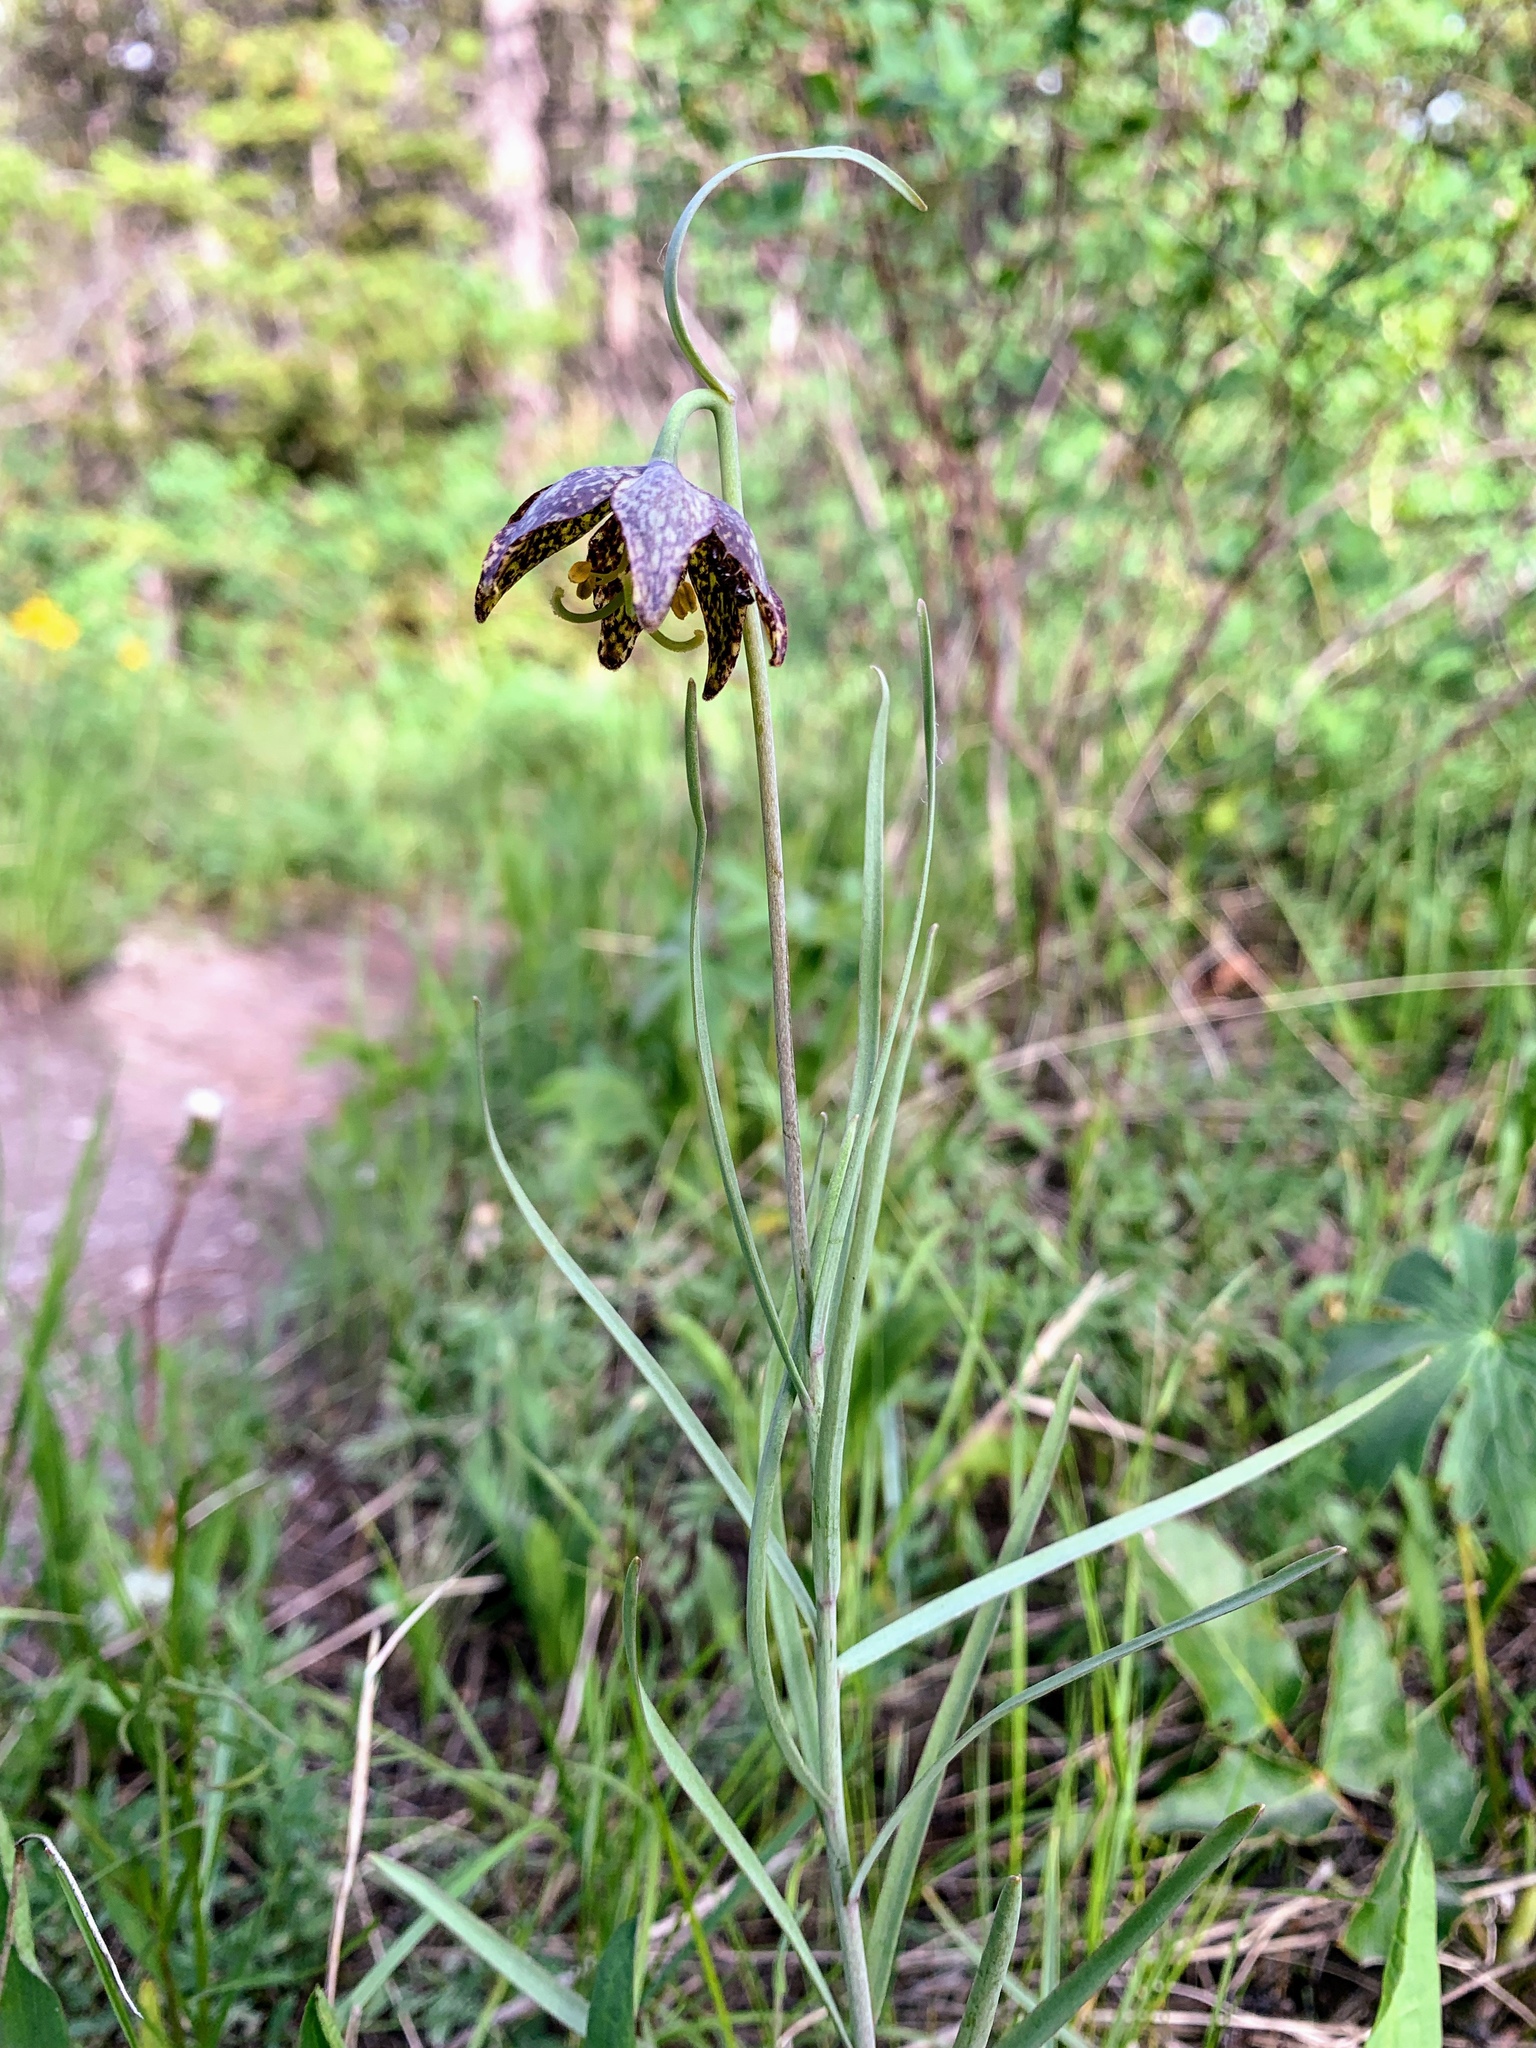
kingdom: Plantae
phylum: Tracheophyta
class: Liliopsida
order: Liliales
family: Liliaceae
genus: Fritillaria
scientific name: Fritillaria atropurpurea
